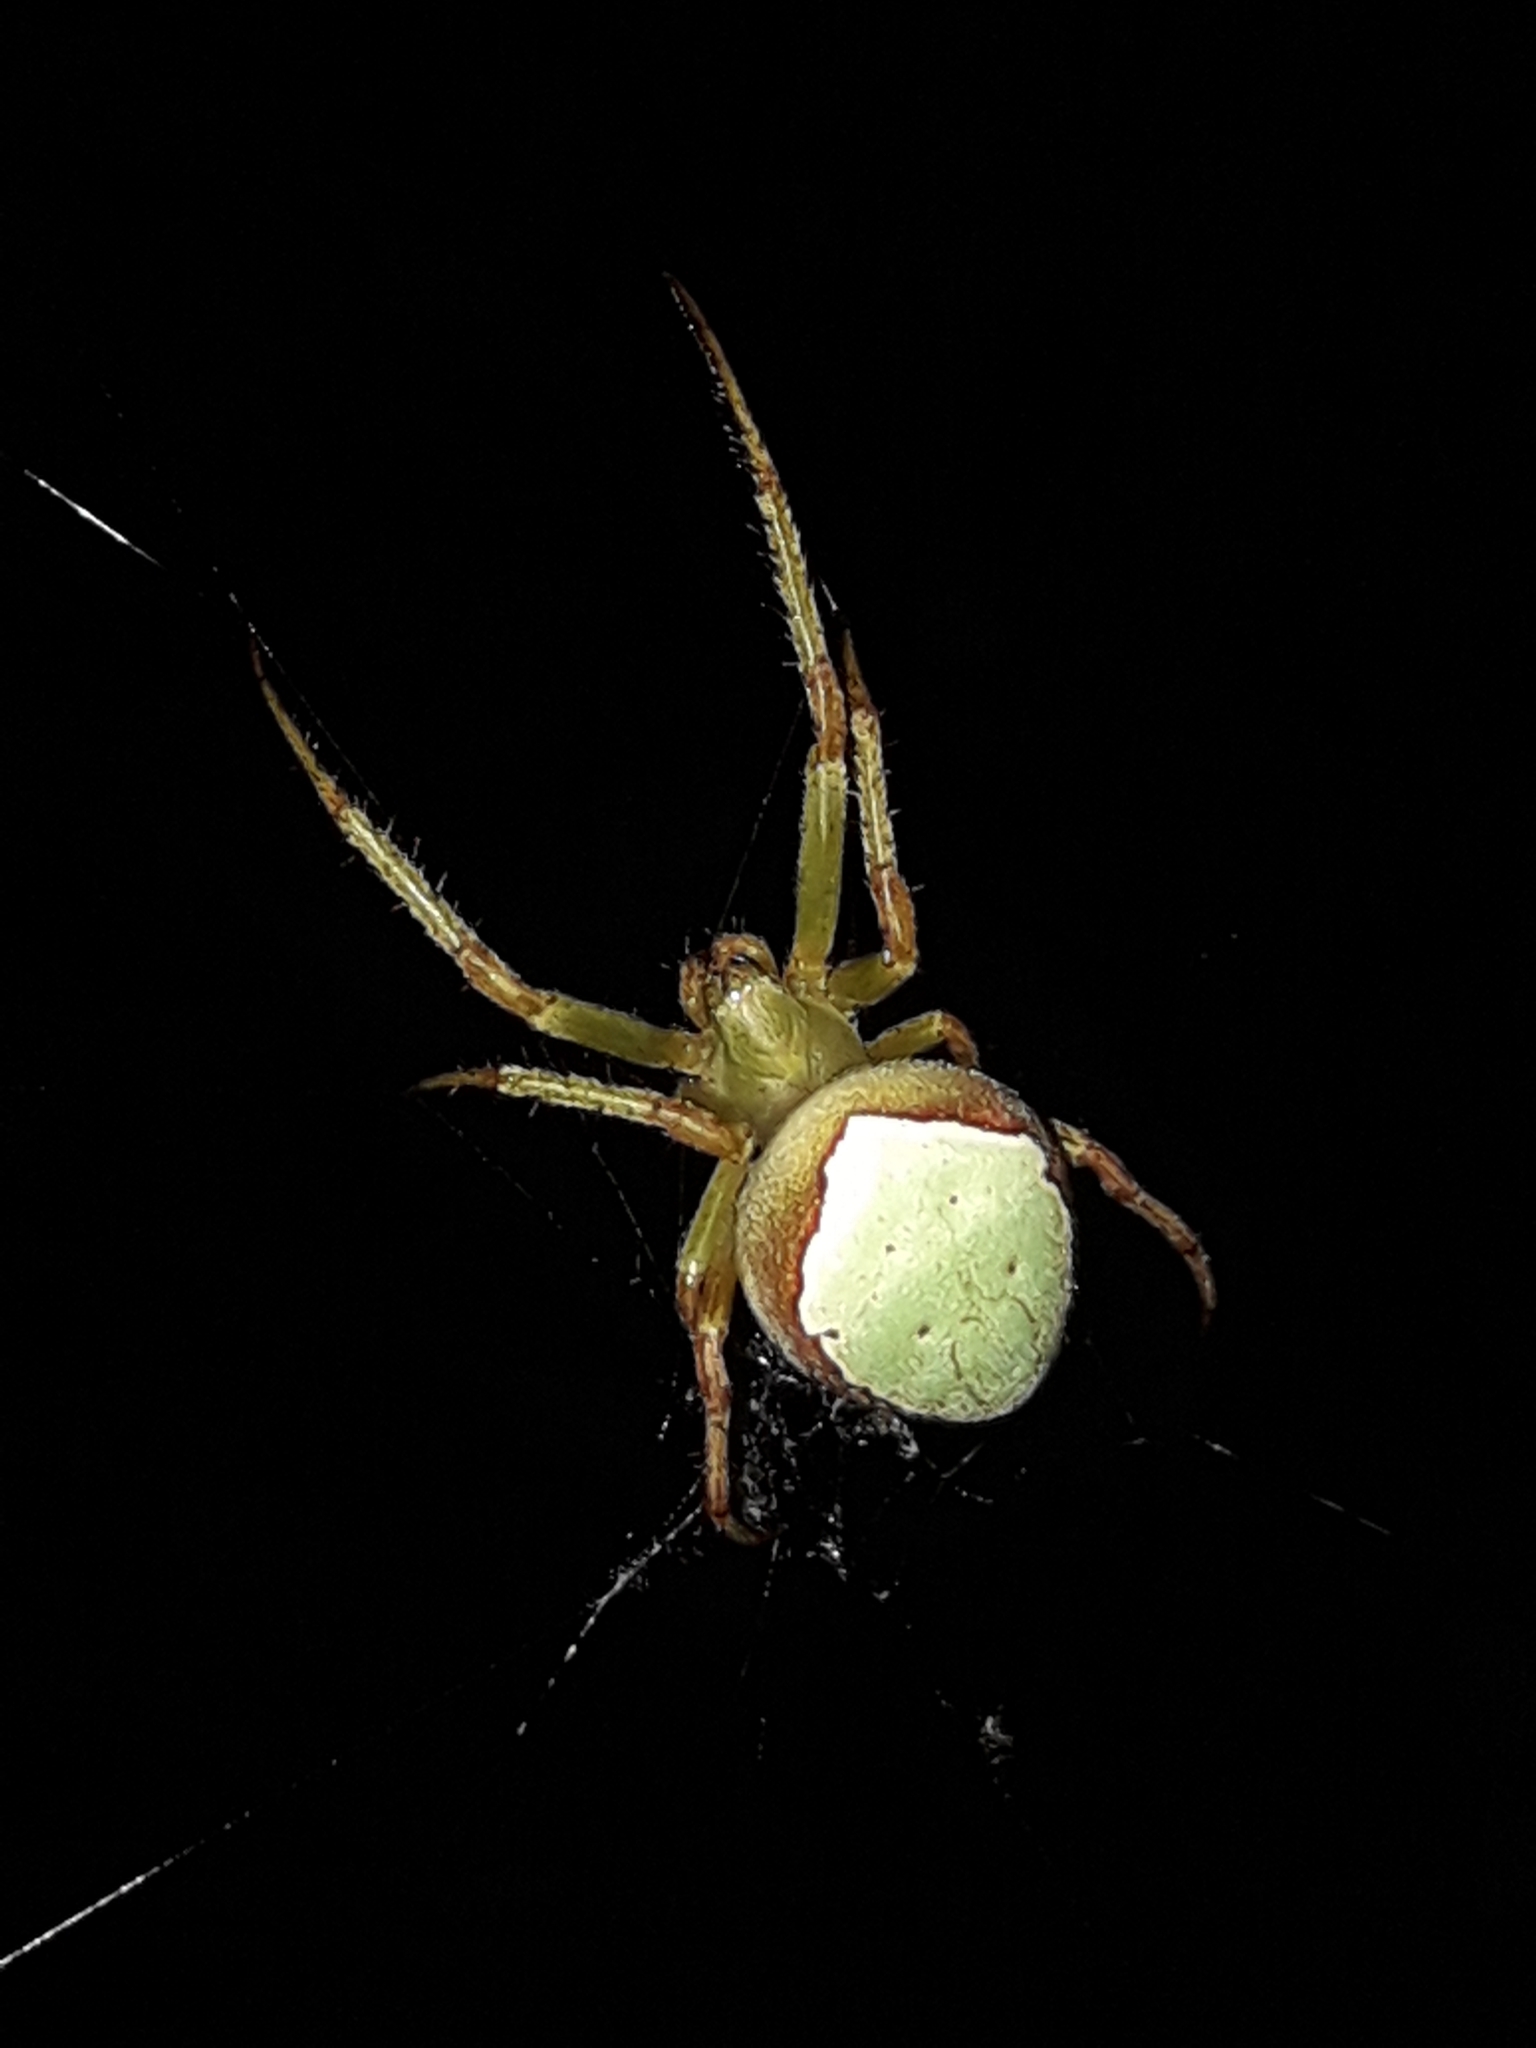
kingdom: Animalia
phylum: Arthropoda
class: Arachnida
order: Araneae
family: Araneidae
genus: Colaranea
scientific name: Colaranea viriditas
